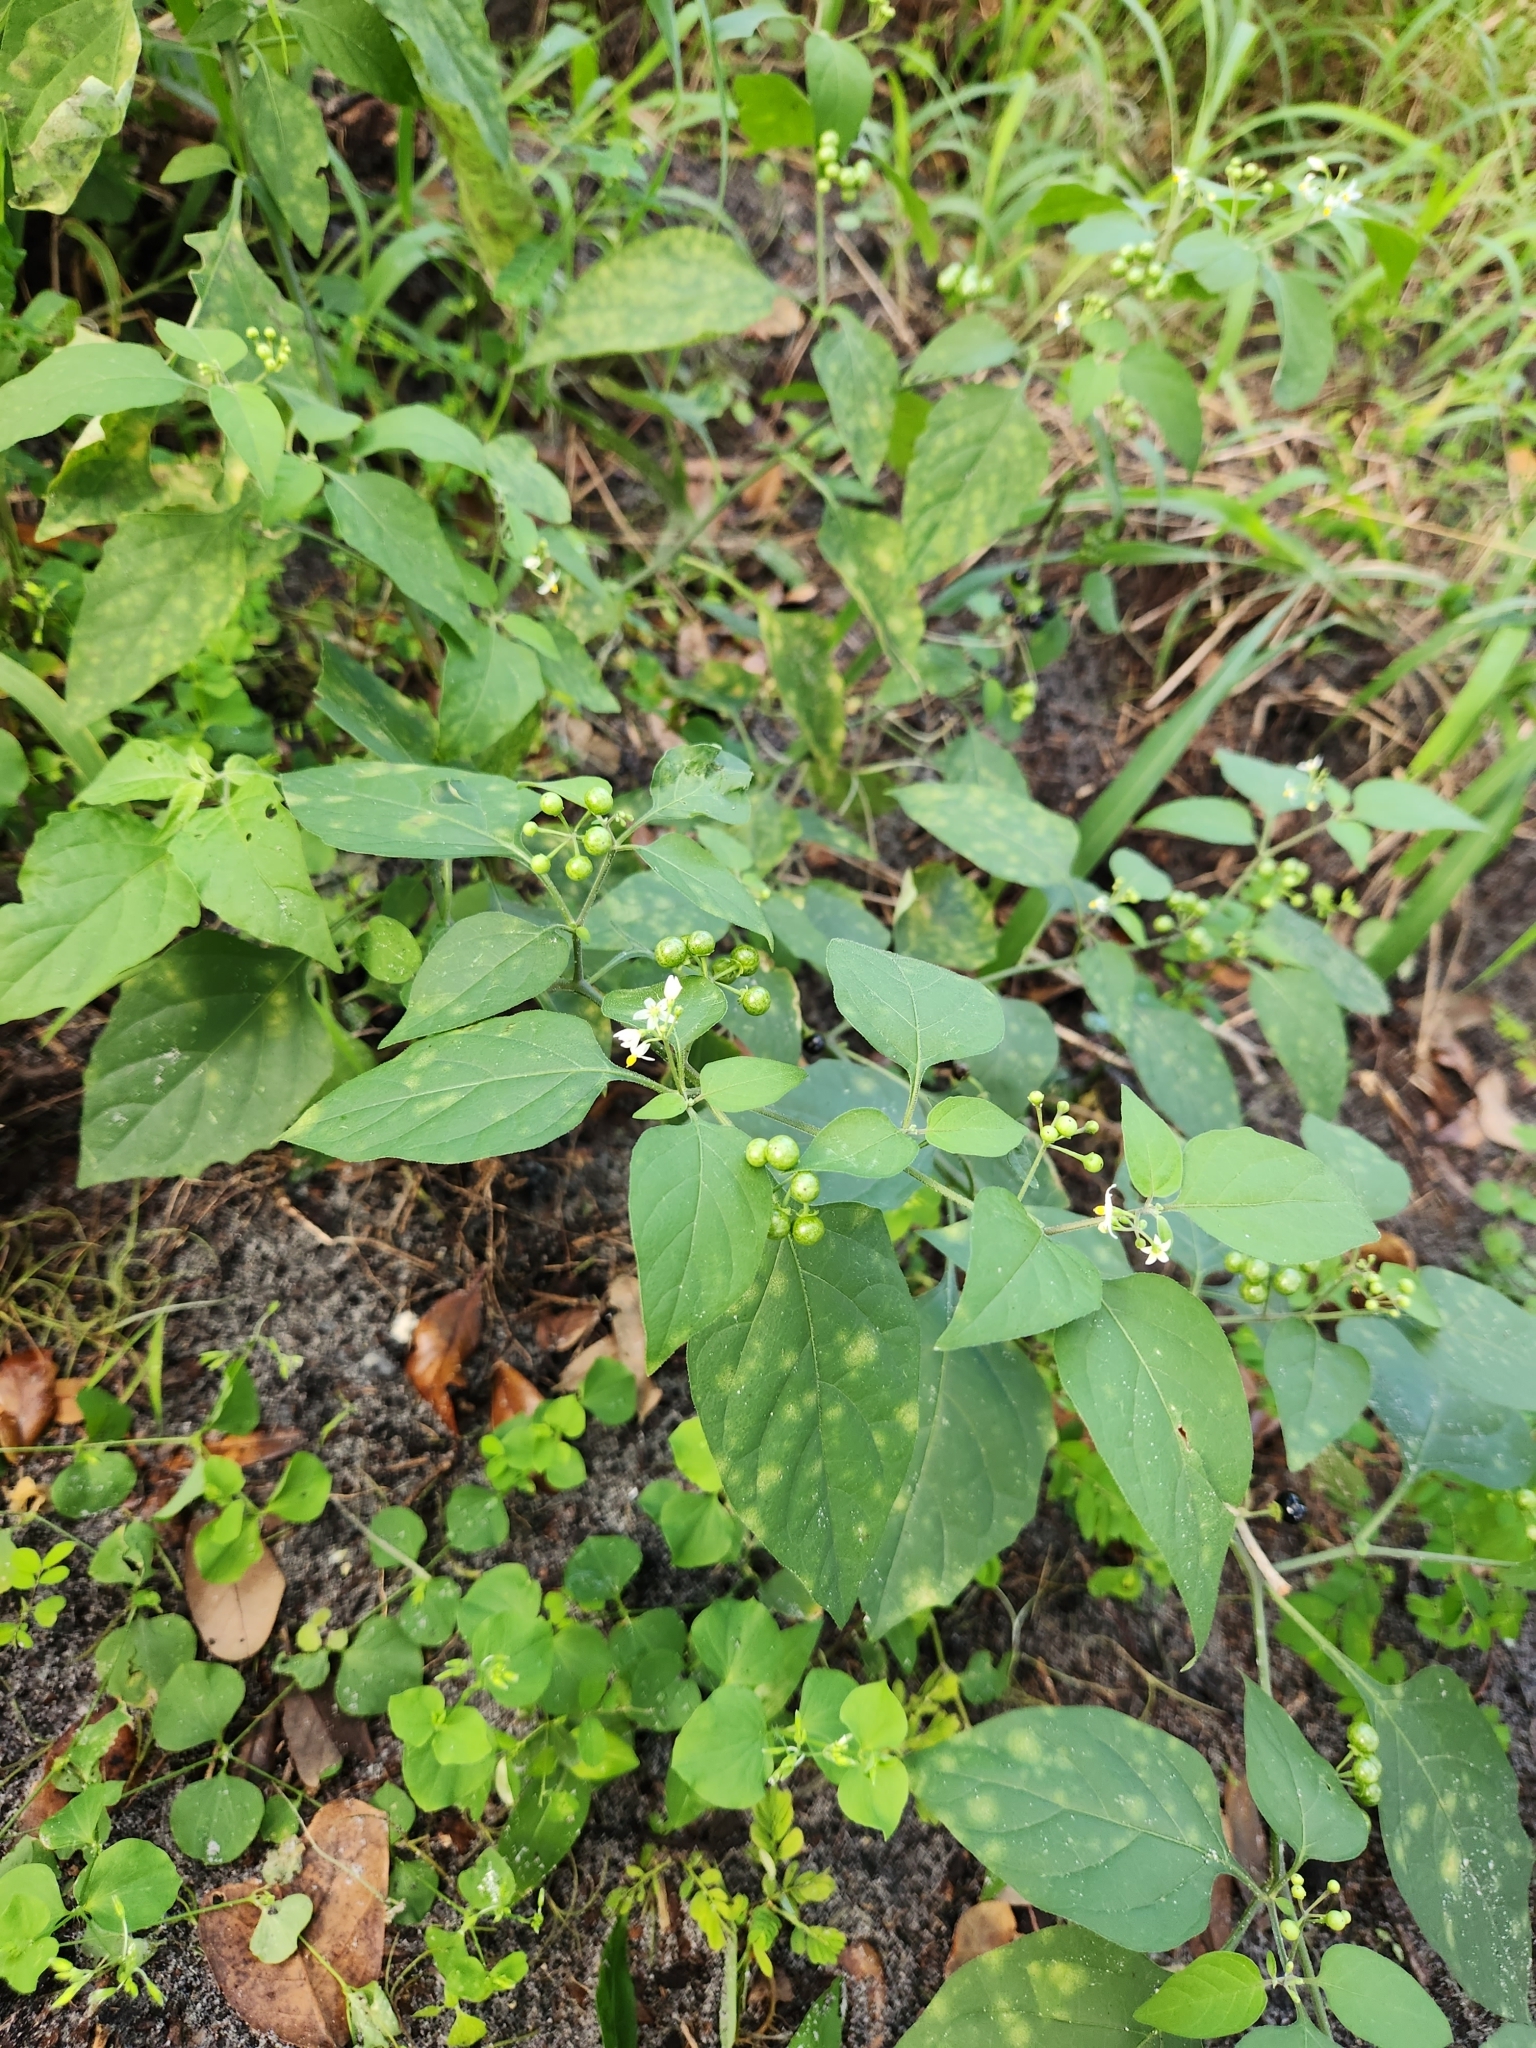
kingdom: Plantae
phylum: Tracheophyta
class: Magnoliopsida
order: Solanales
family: Solanaceae
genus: Solanum
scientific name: Solanum americanum
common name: American black nightshade
